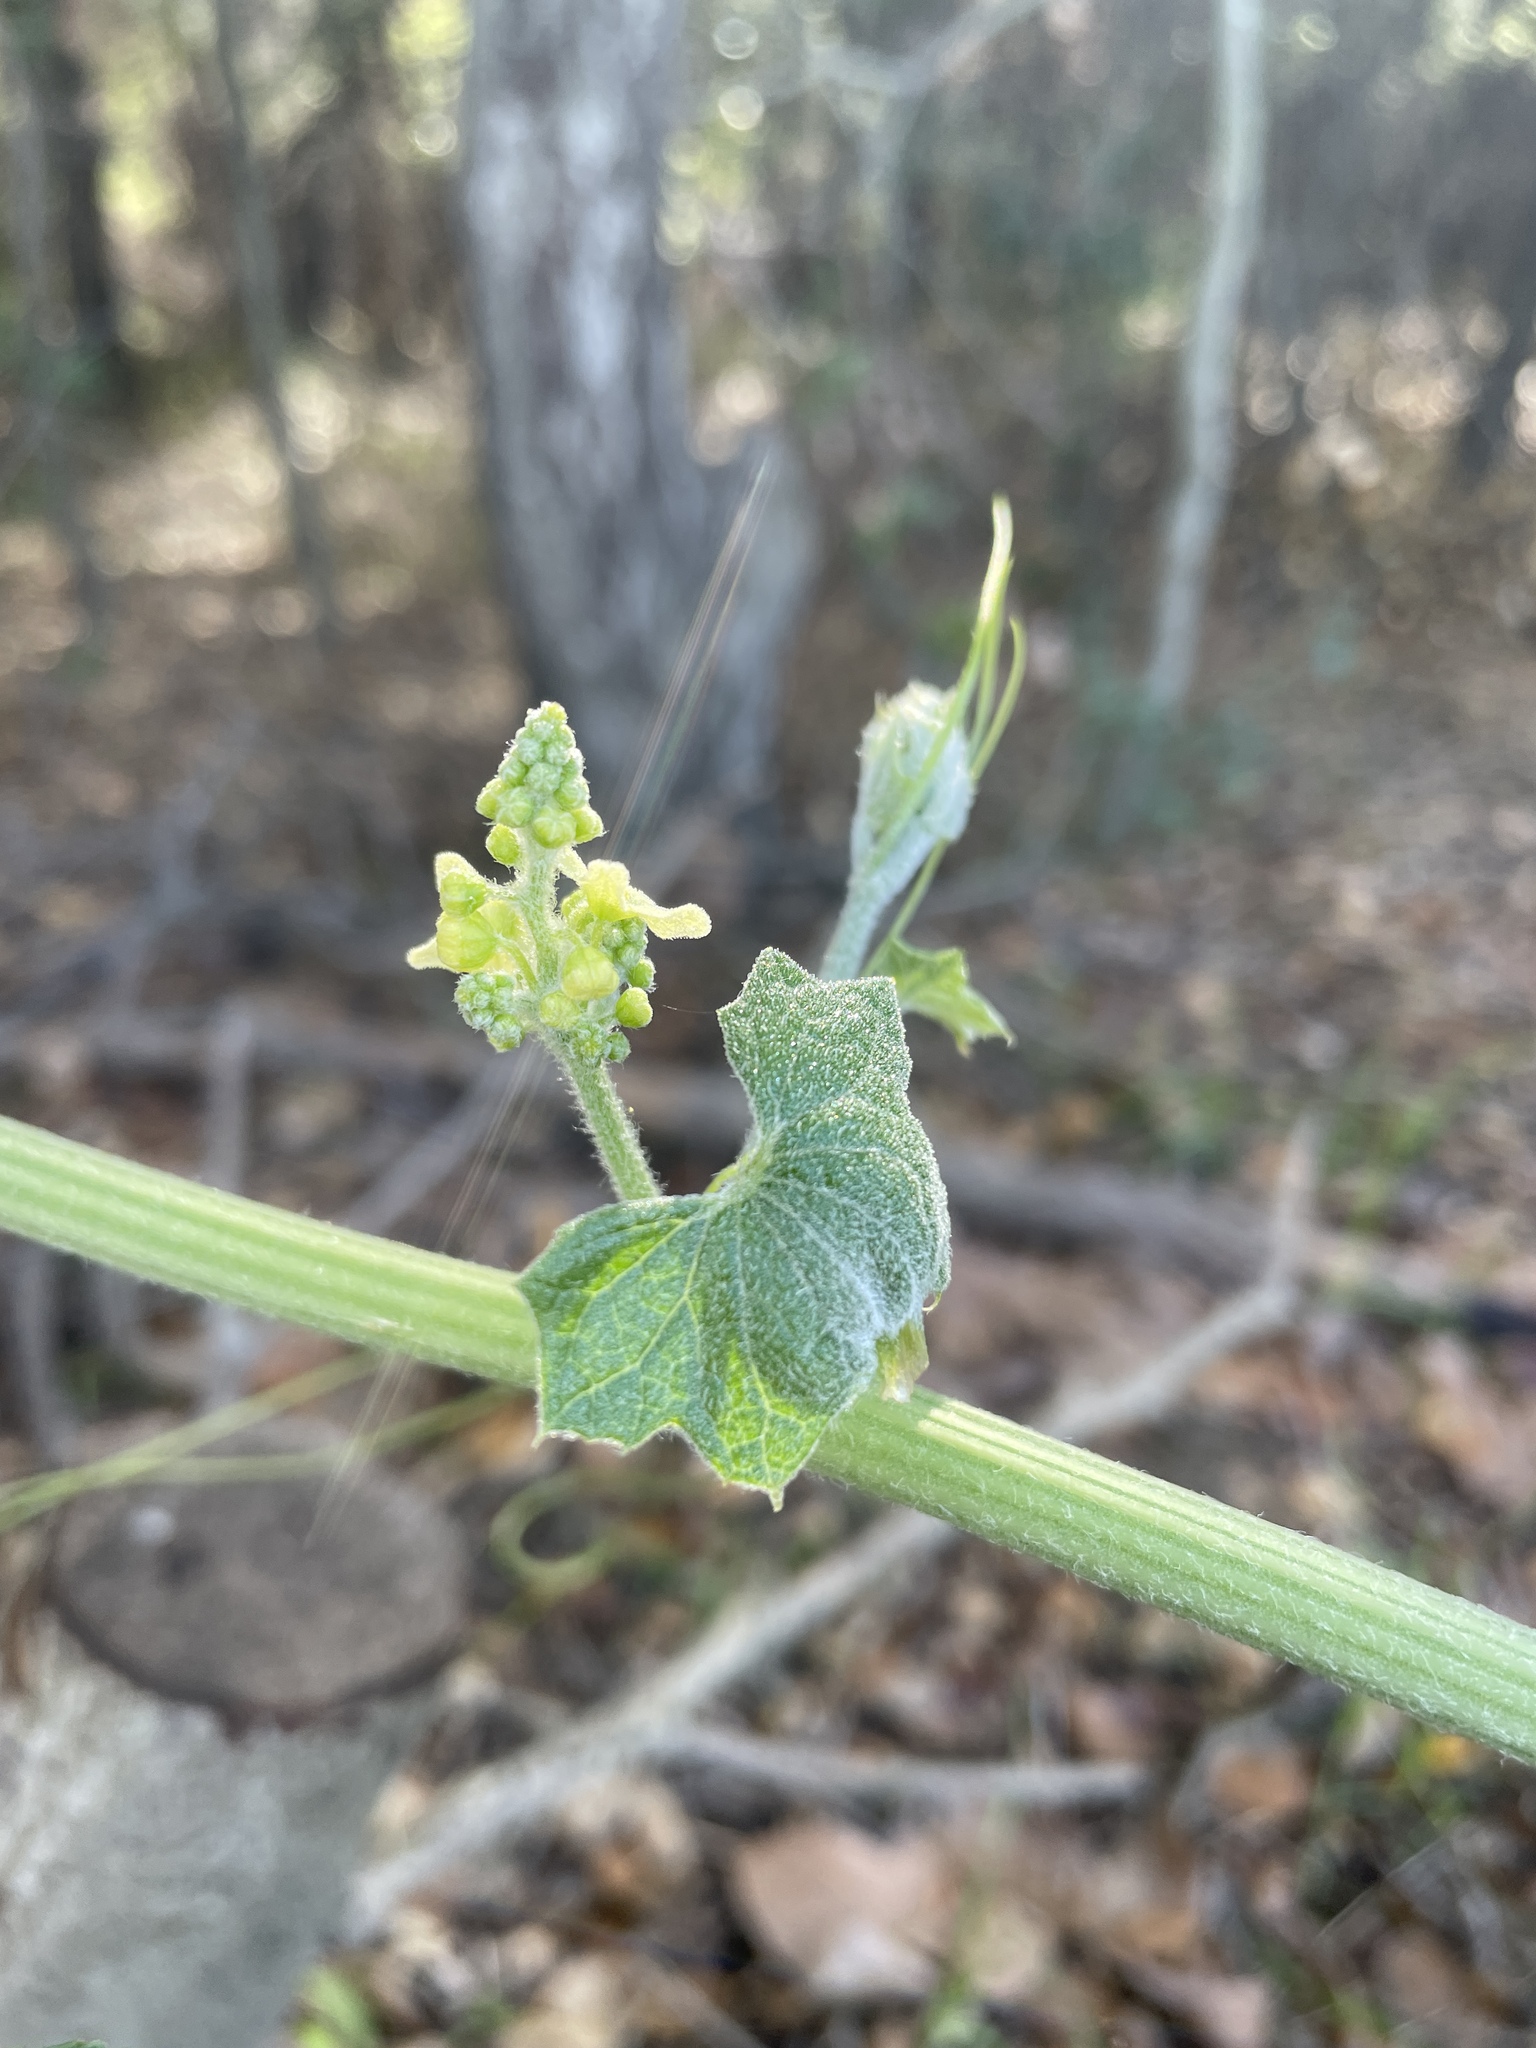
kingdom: Plantae
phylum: Tracheophyta
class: Magnoliopsida
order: Cucurbitales
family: Cucurbitaceae
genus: Marah
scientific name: Marah fabacea
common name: California manroot
